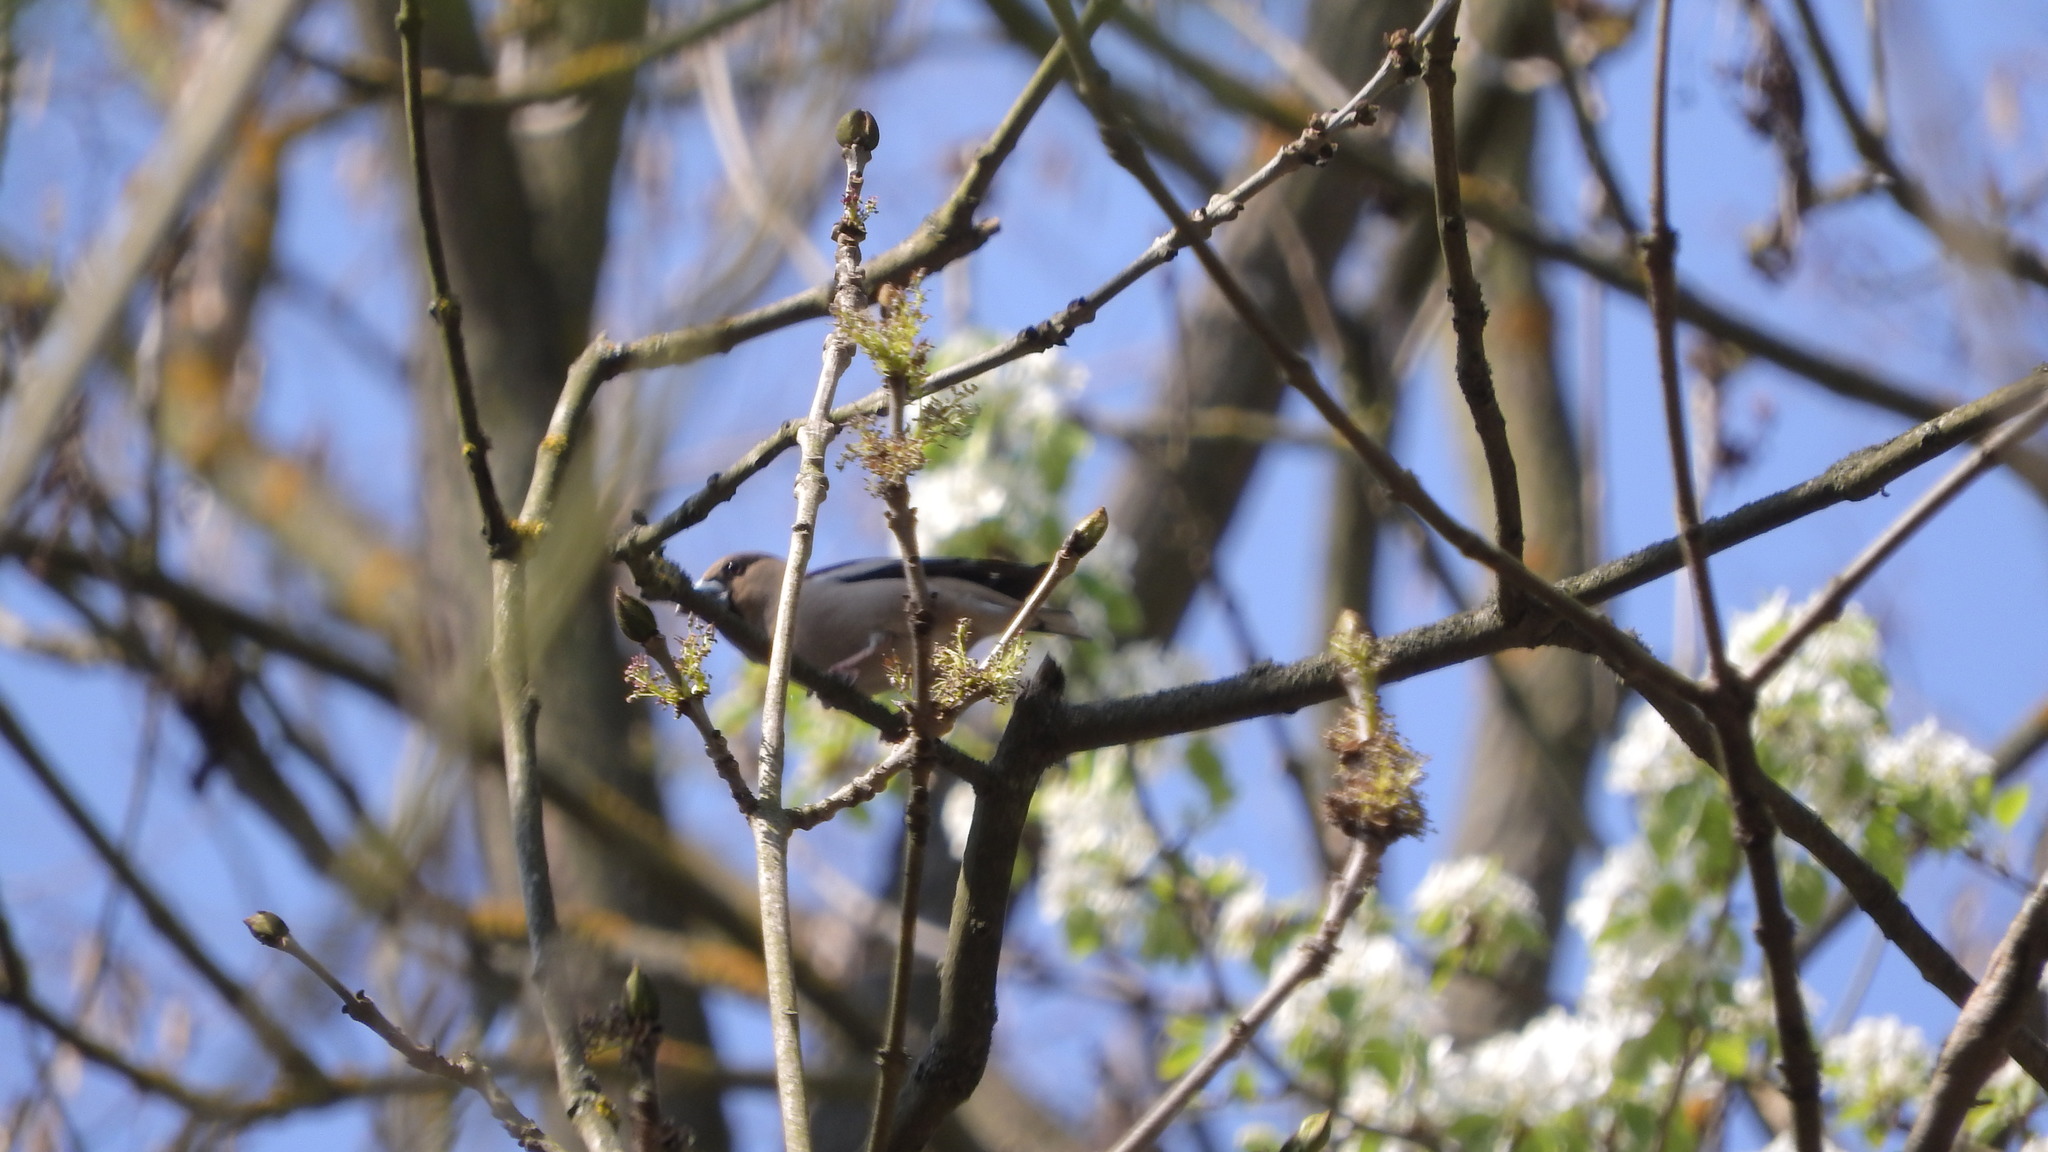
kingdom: Animalia
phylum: Chordata
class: Aves
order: Passeriformes
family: Fringillidae
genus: Coccothraustes
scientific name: Coccothraustes coccothraustes
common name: Hawfinch
